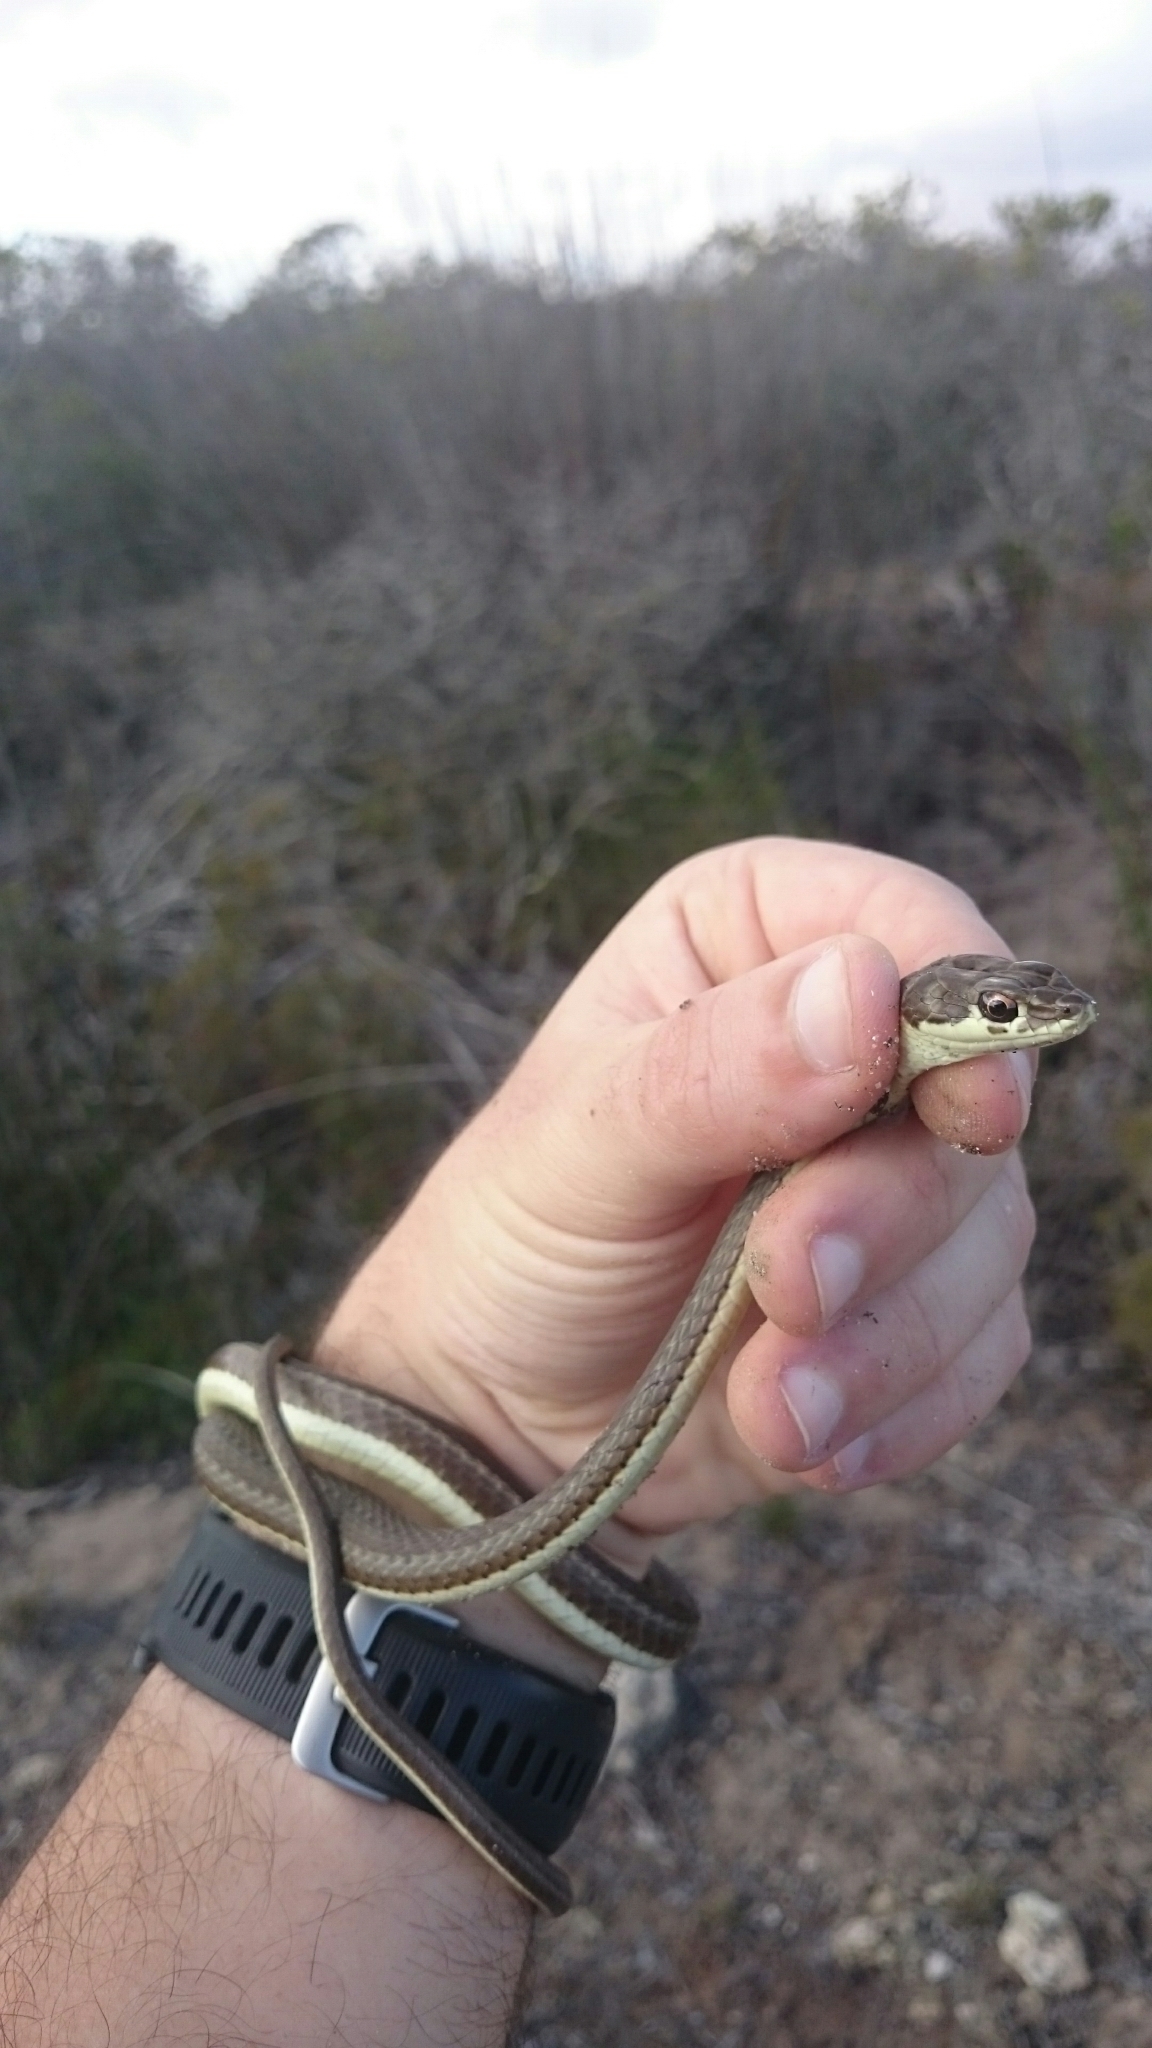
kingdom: Animalia
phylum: Chordata
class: Squamata
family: Psammophiidae
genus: Psammophis
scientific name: Psammophis notostictus
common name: Karoo sand snake
